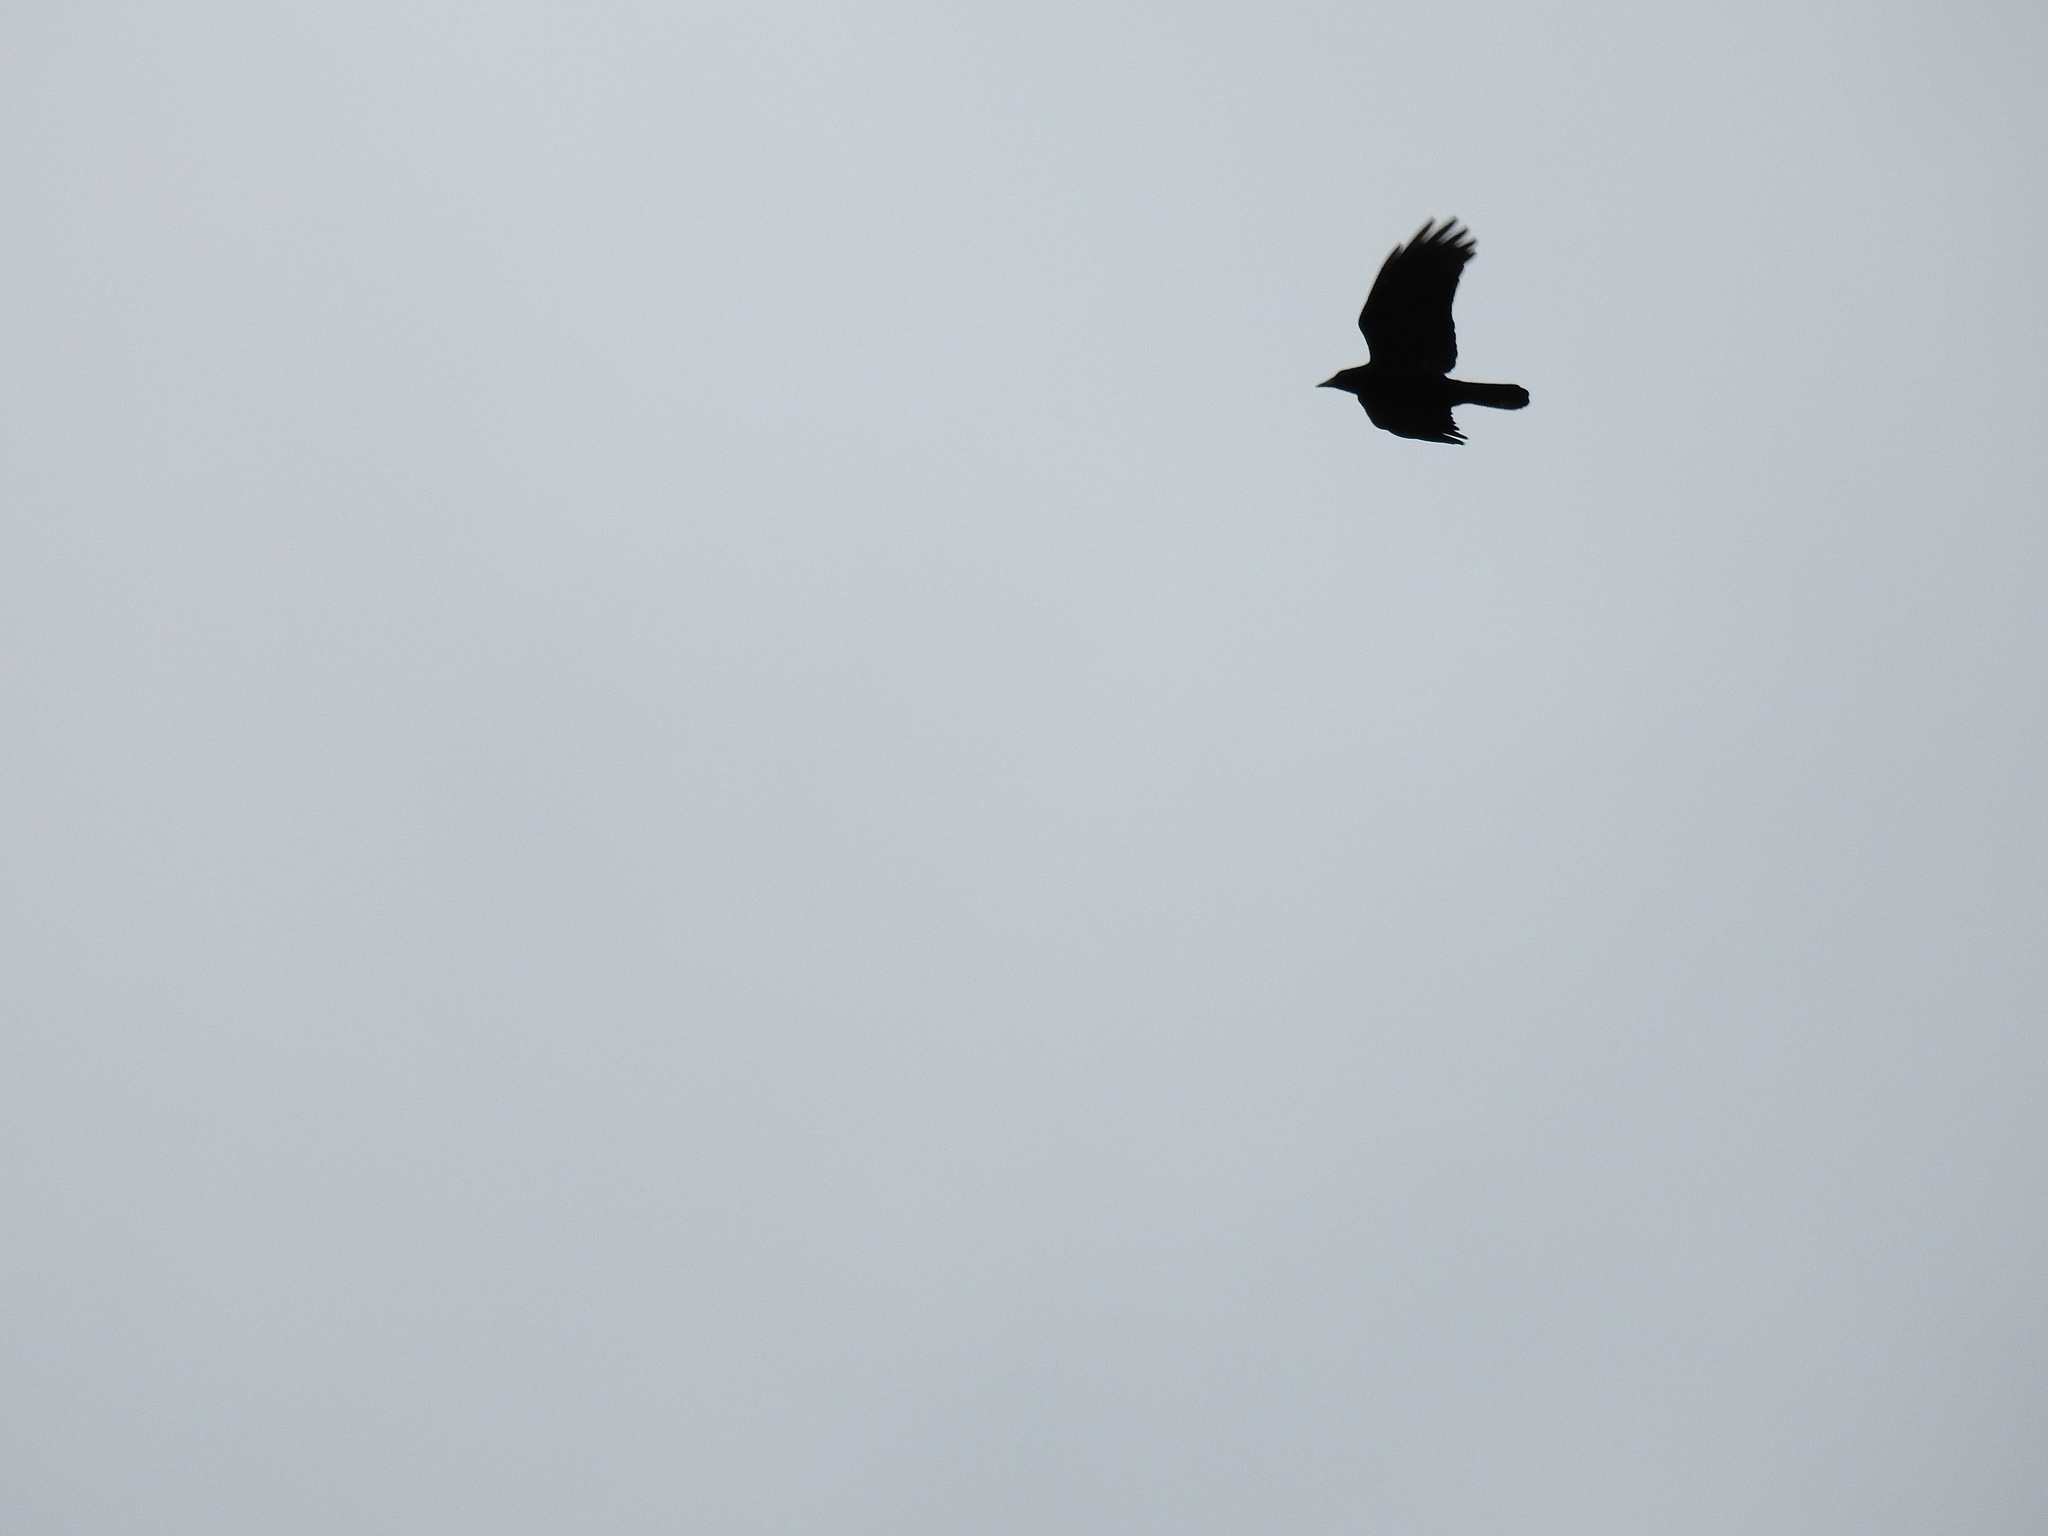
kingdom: Animalia
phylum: Chordata
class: Aves
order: Passeriformes
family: Corvidae
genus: Corvus
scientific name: Corvus brachyrhynchos
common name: American crow
